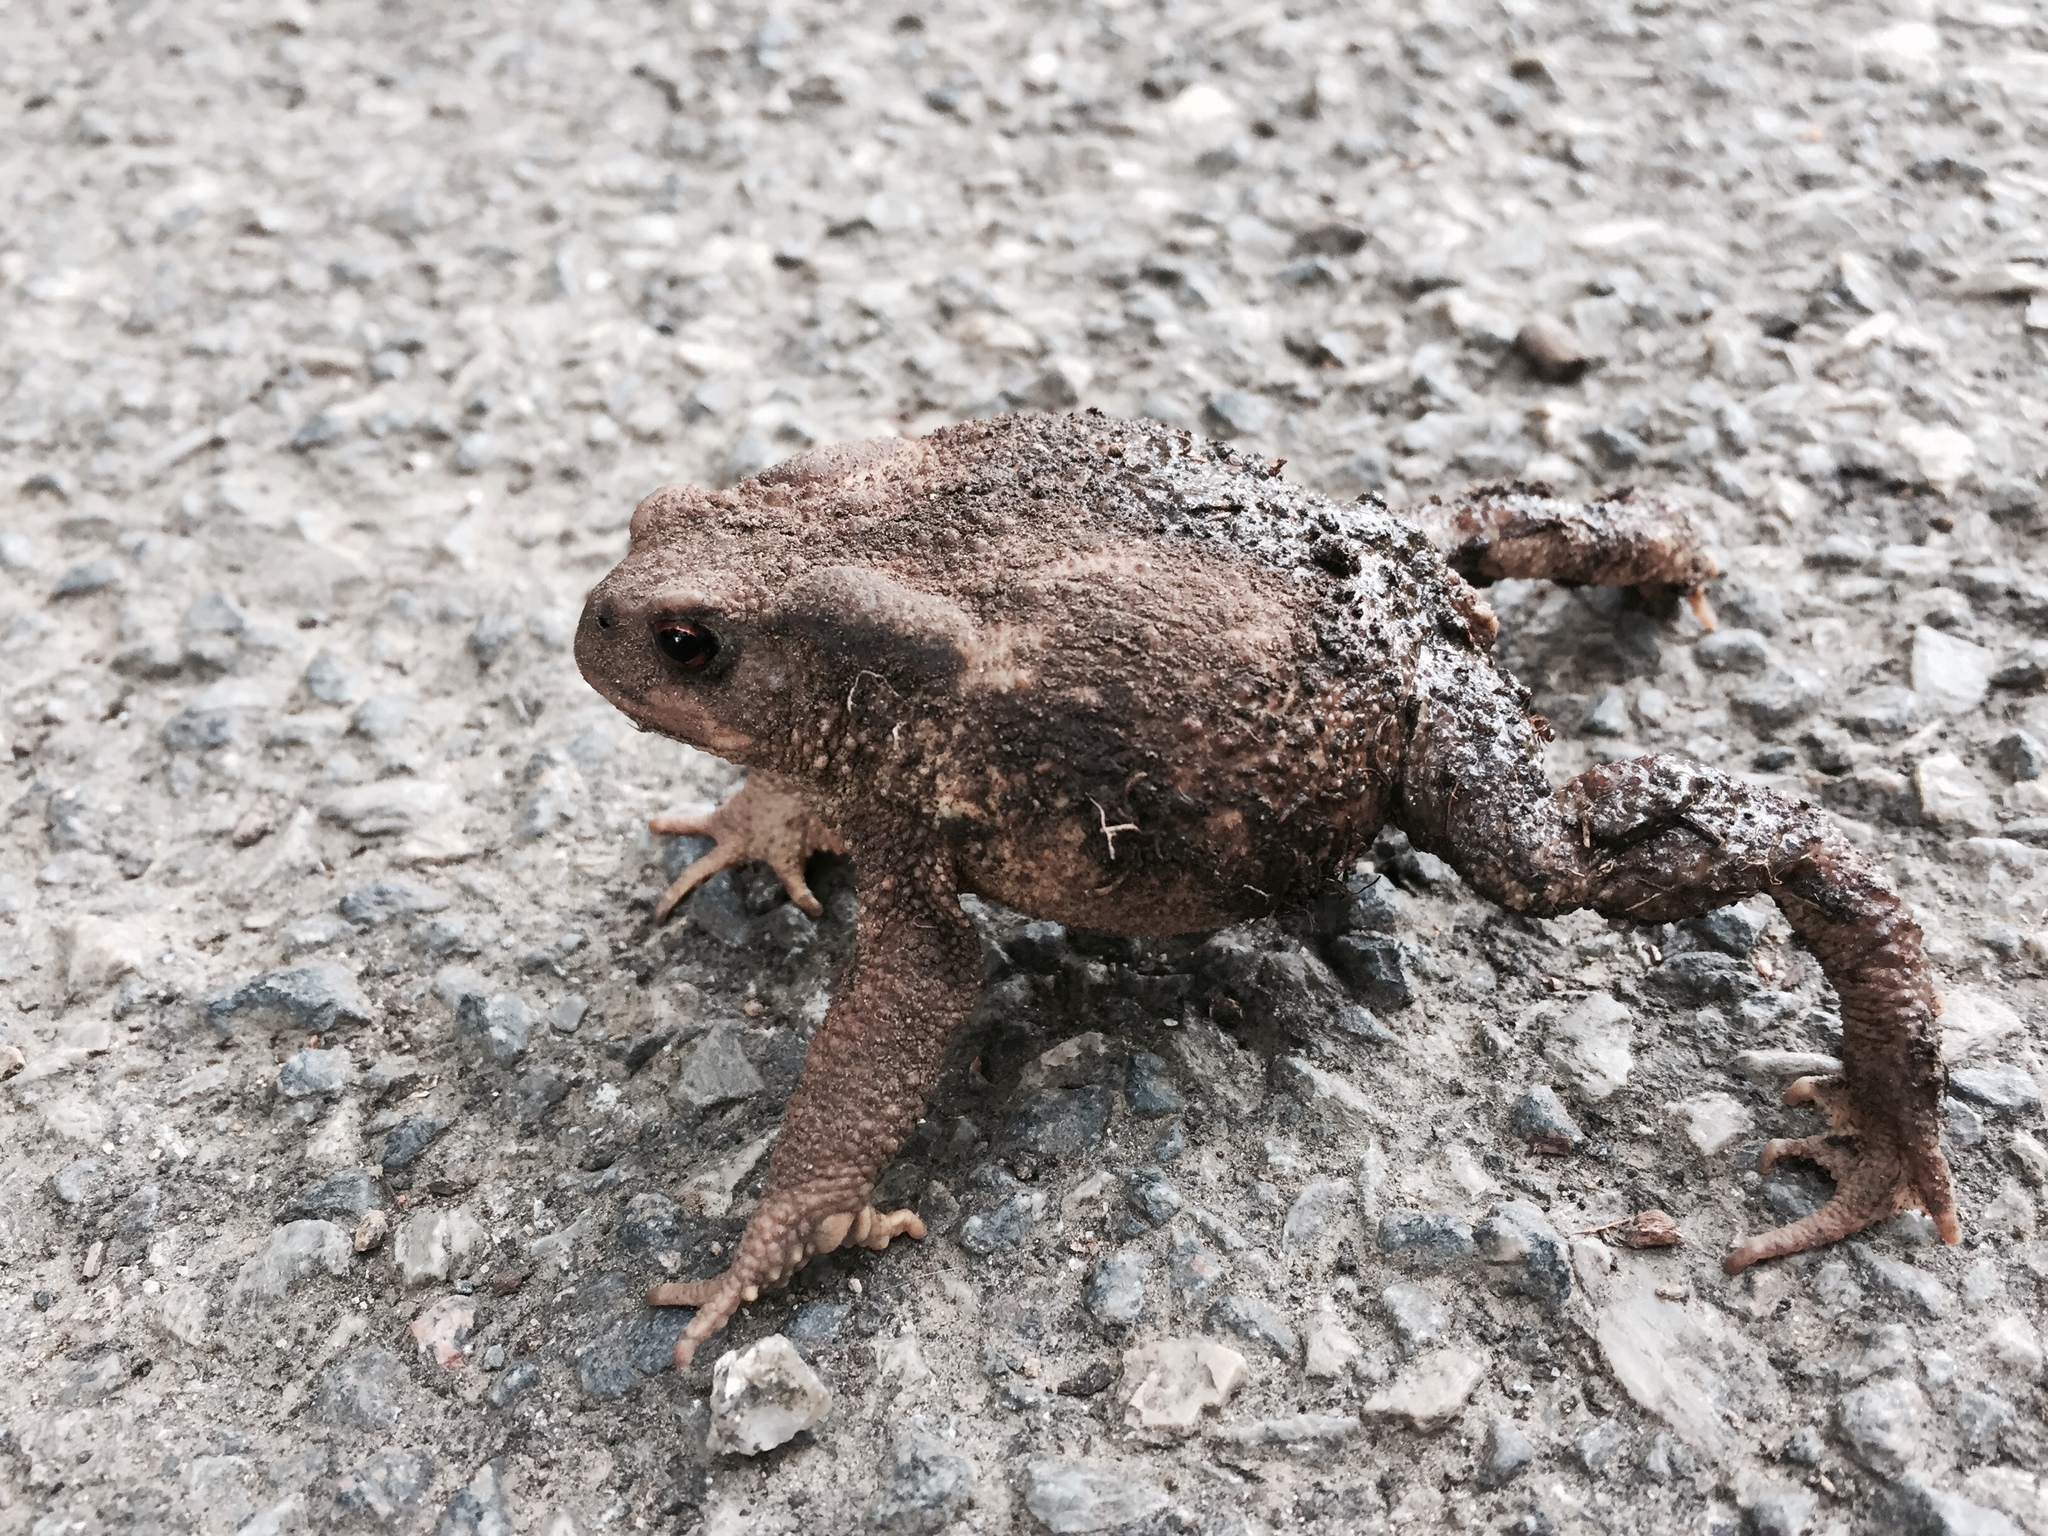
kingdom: Animalia
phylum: Chordata
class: Amphibia
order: Anura
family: Bufonidae
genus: Bufo
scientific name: Bufo spinosus
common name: Western common toad
